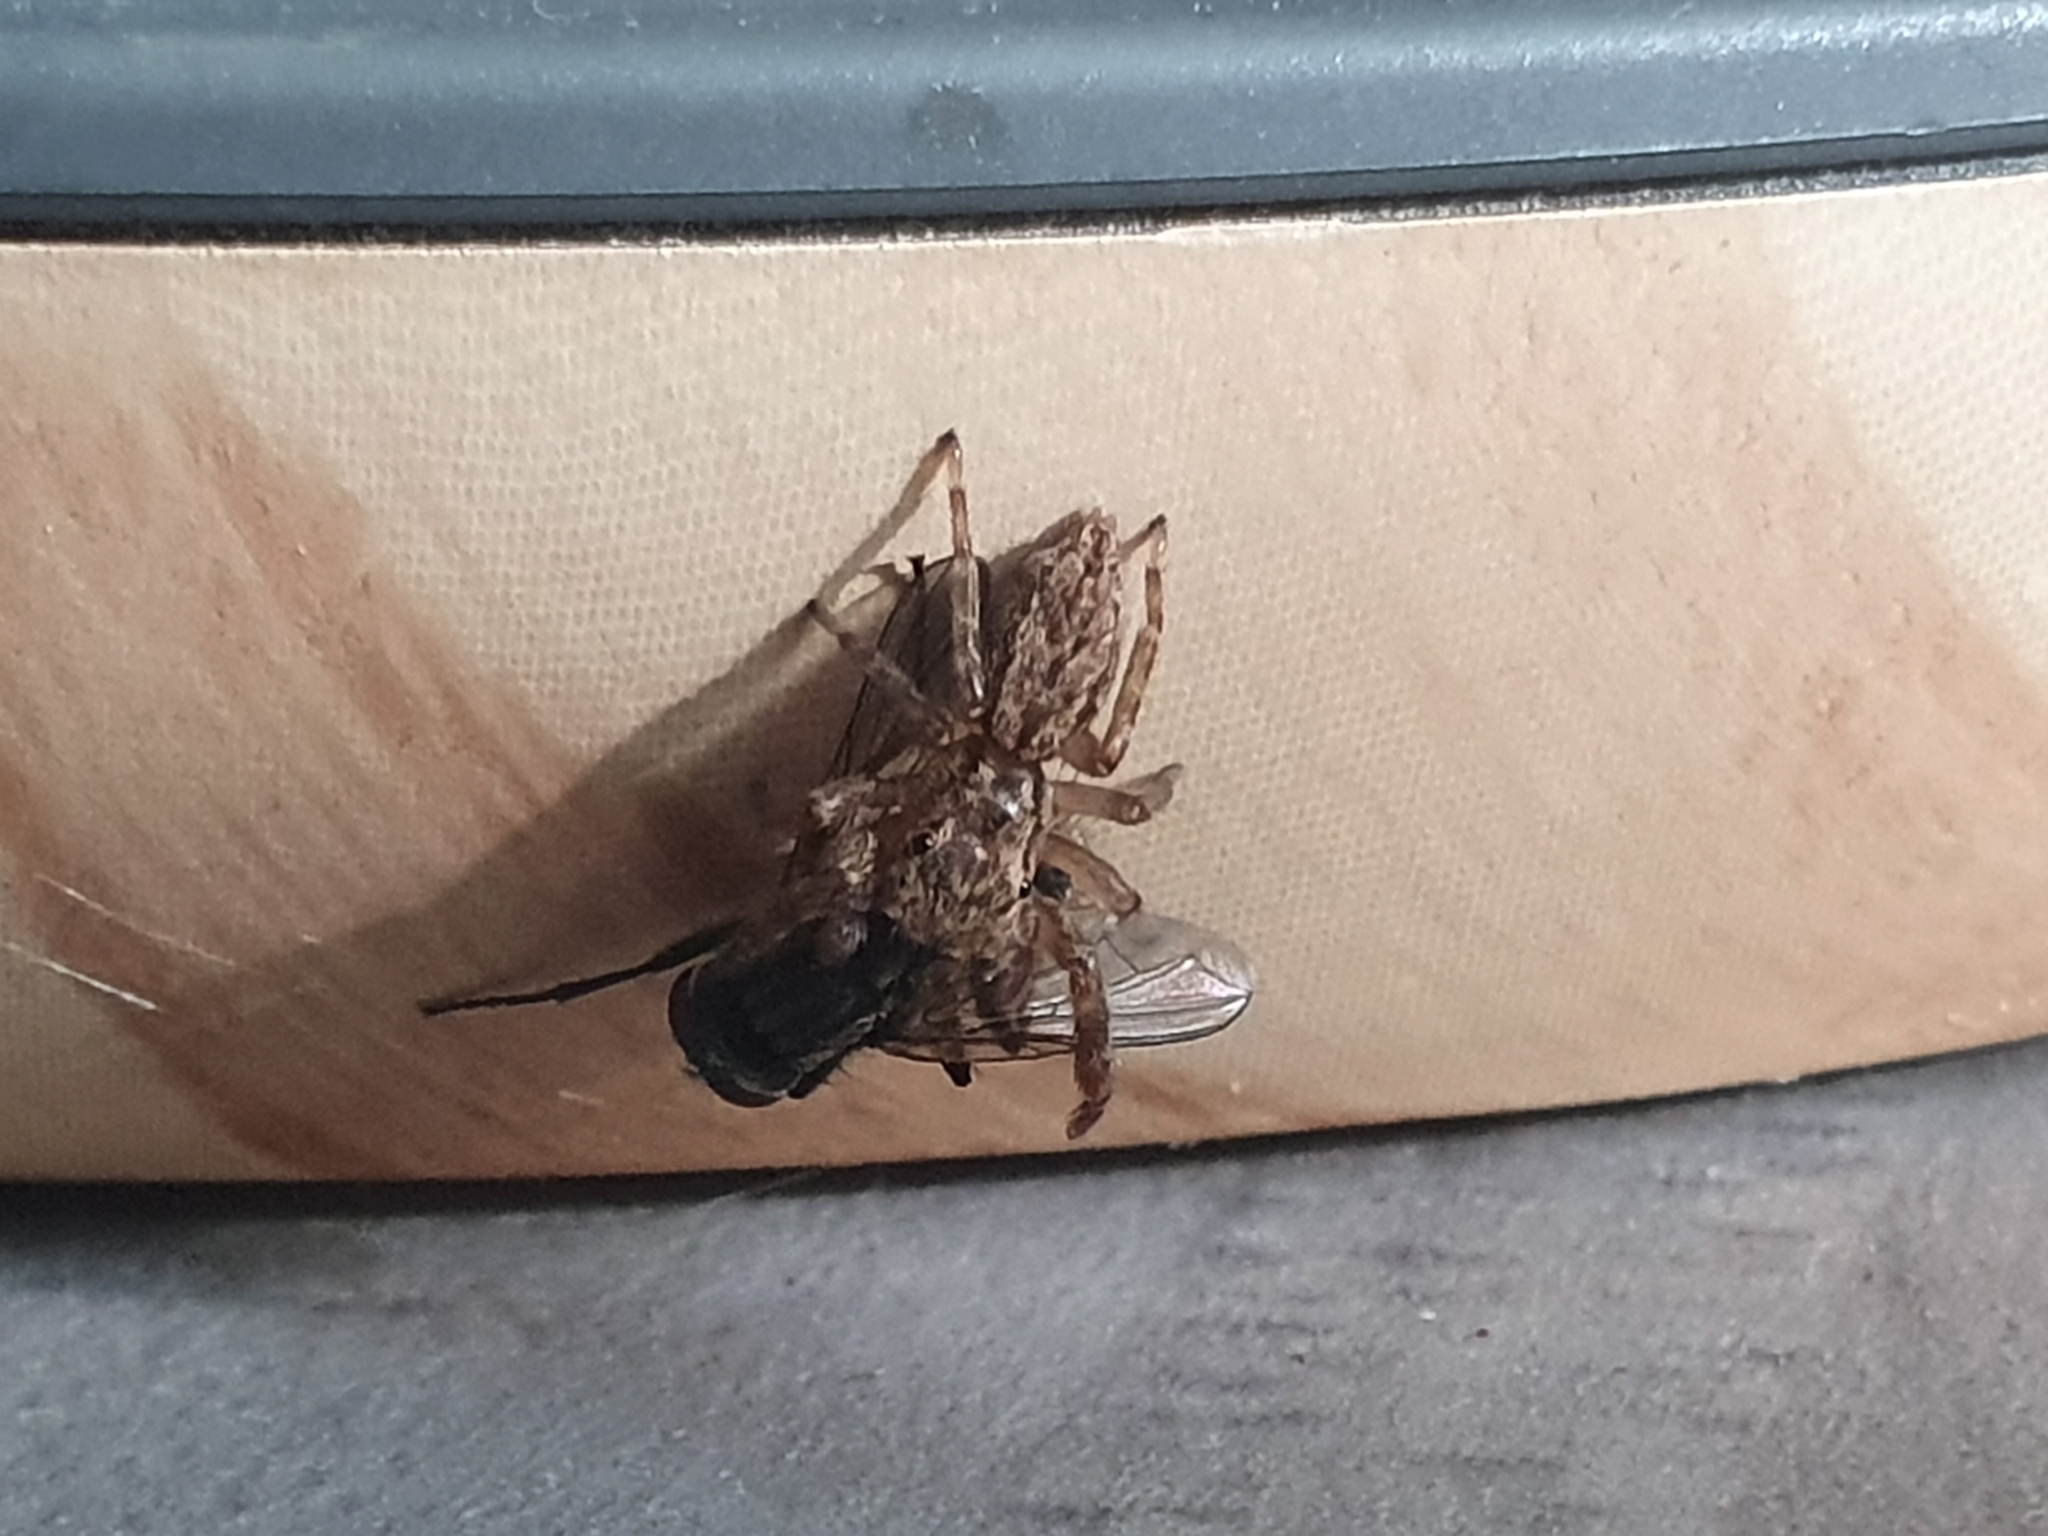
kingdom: Animalia
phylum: Arthropoda
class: Arachnida
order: Araneae
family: Salticidae
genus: Trite
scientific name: Trite auricoma
